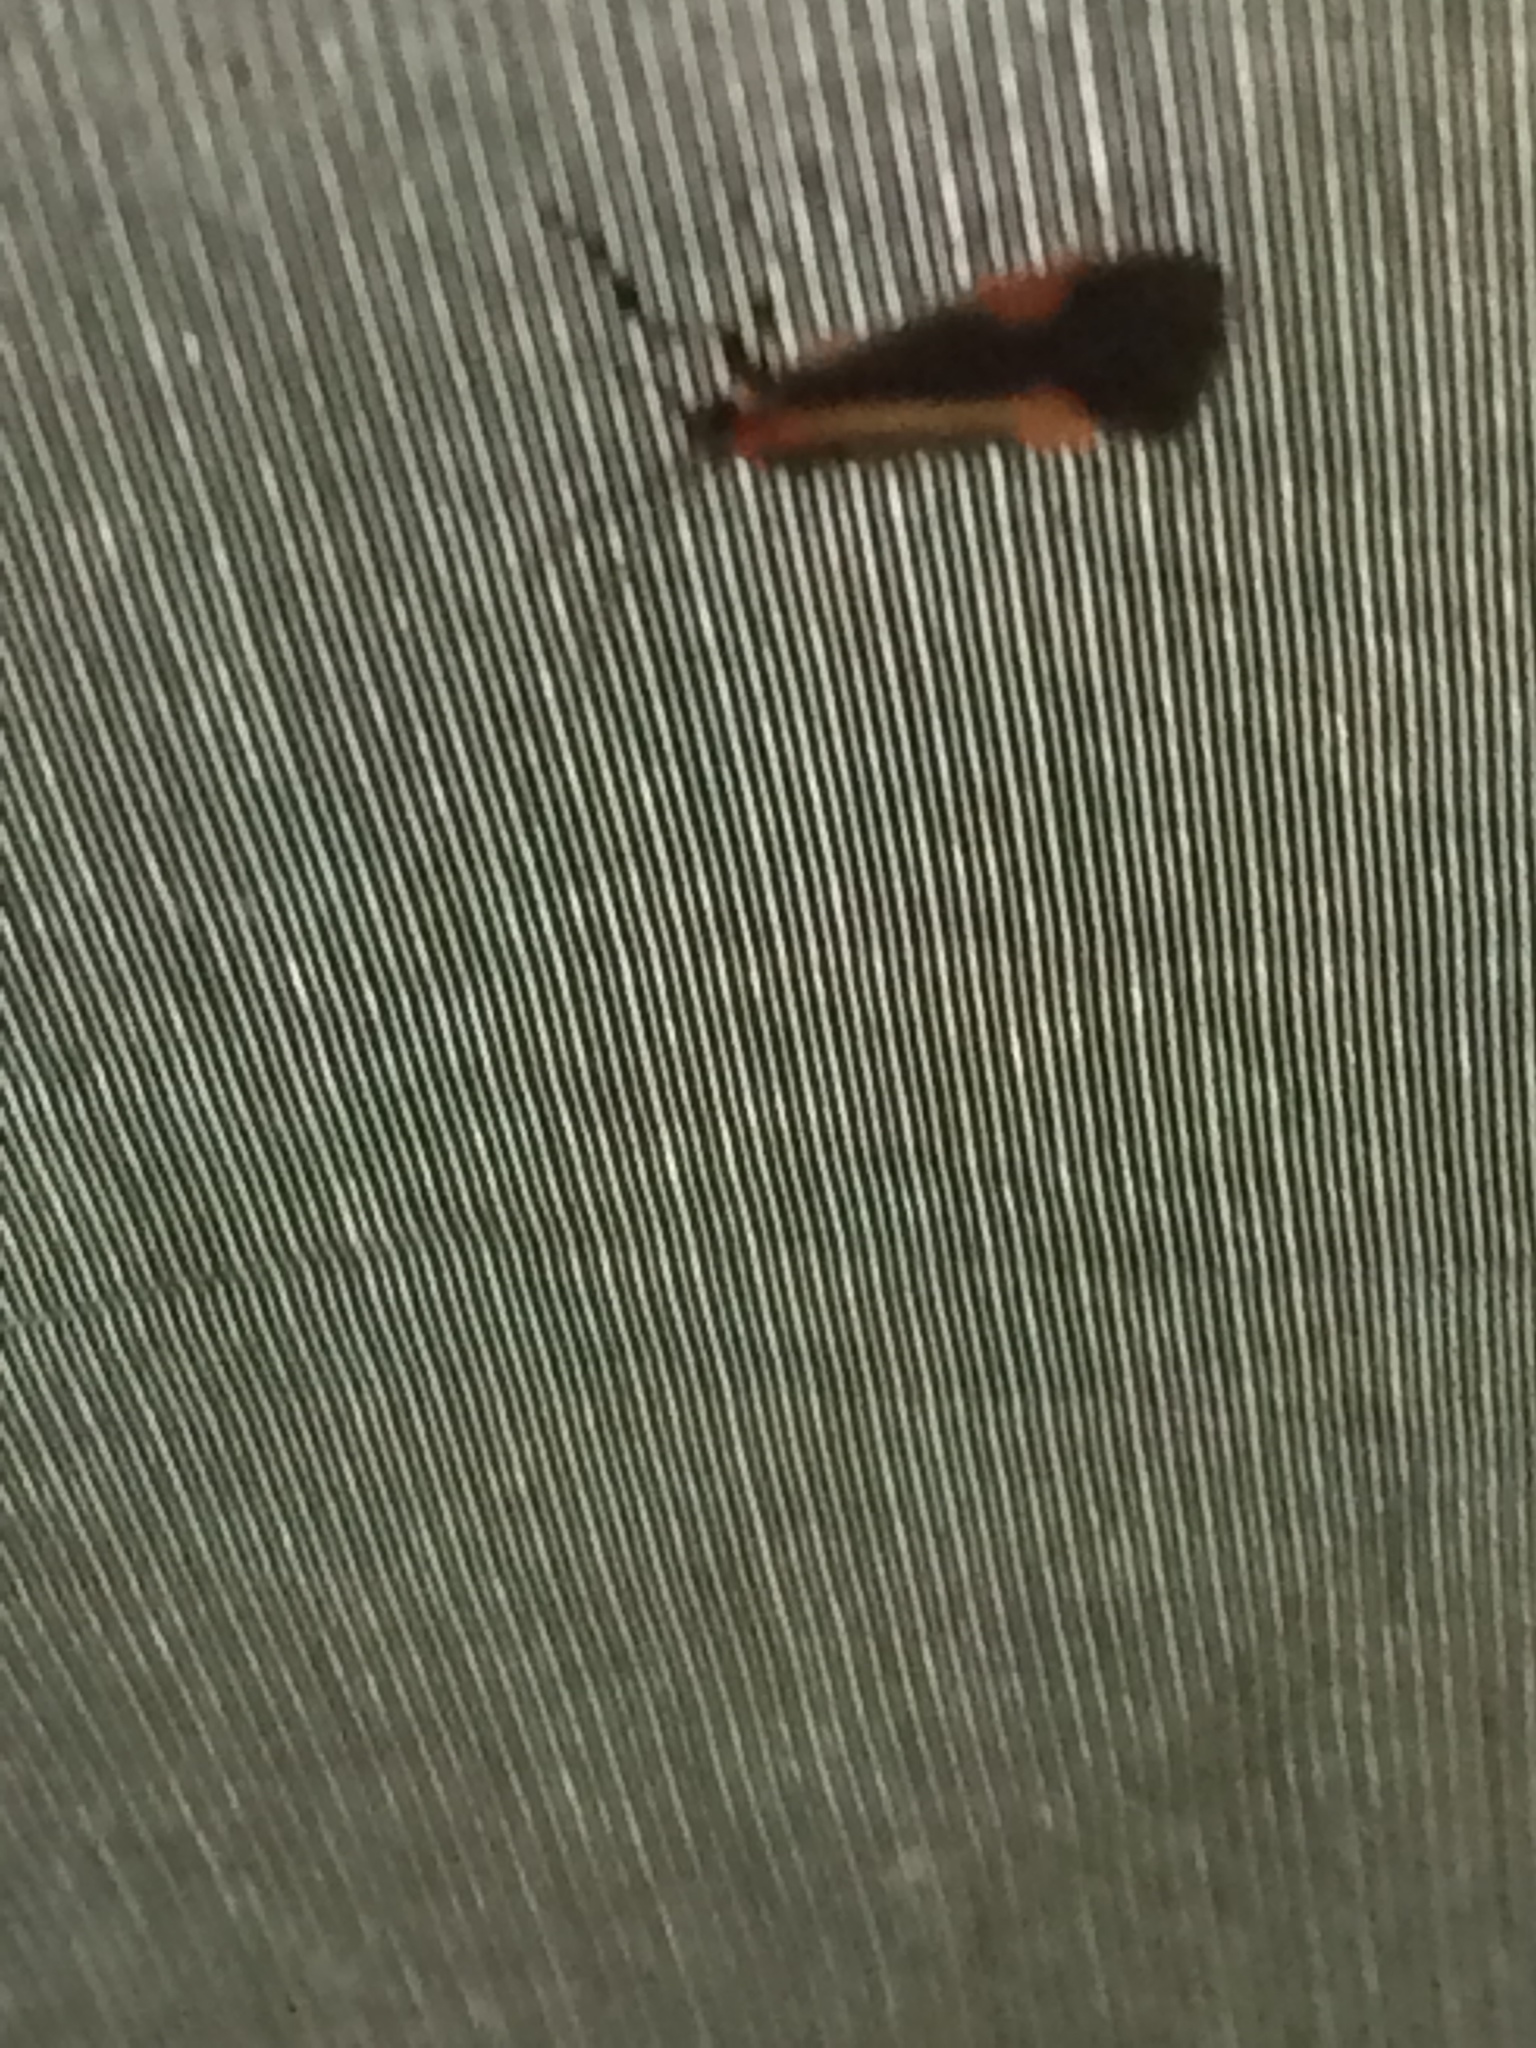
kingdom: Animalia
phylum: Arthropoda
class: Insecta
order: Lepidoptera
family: Erebidae
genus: Cisthene
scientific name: Cisthene
